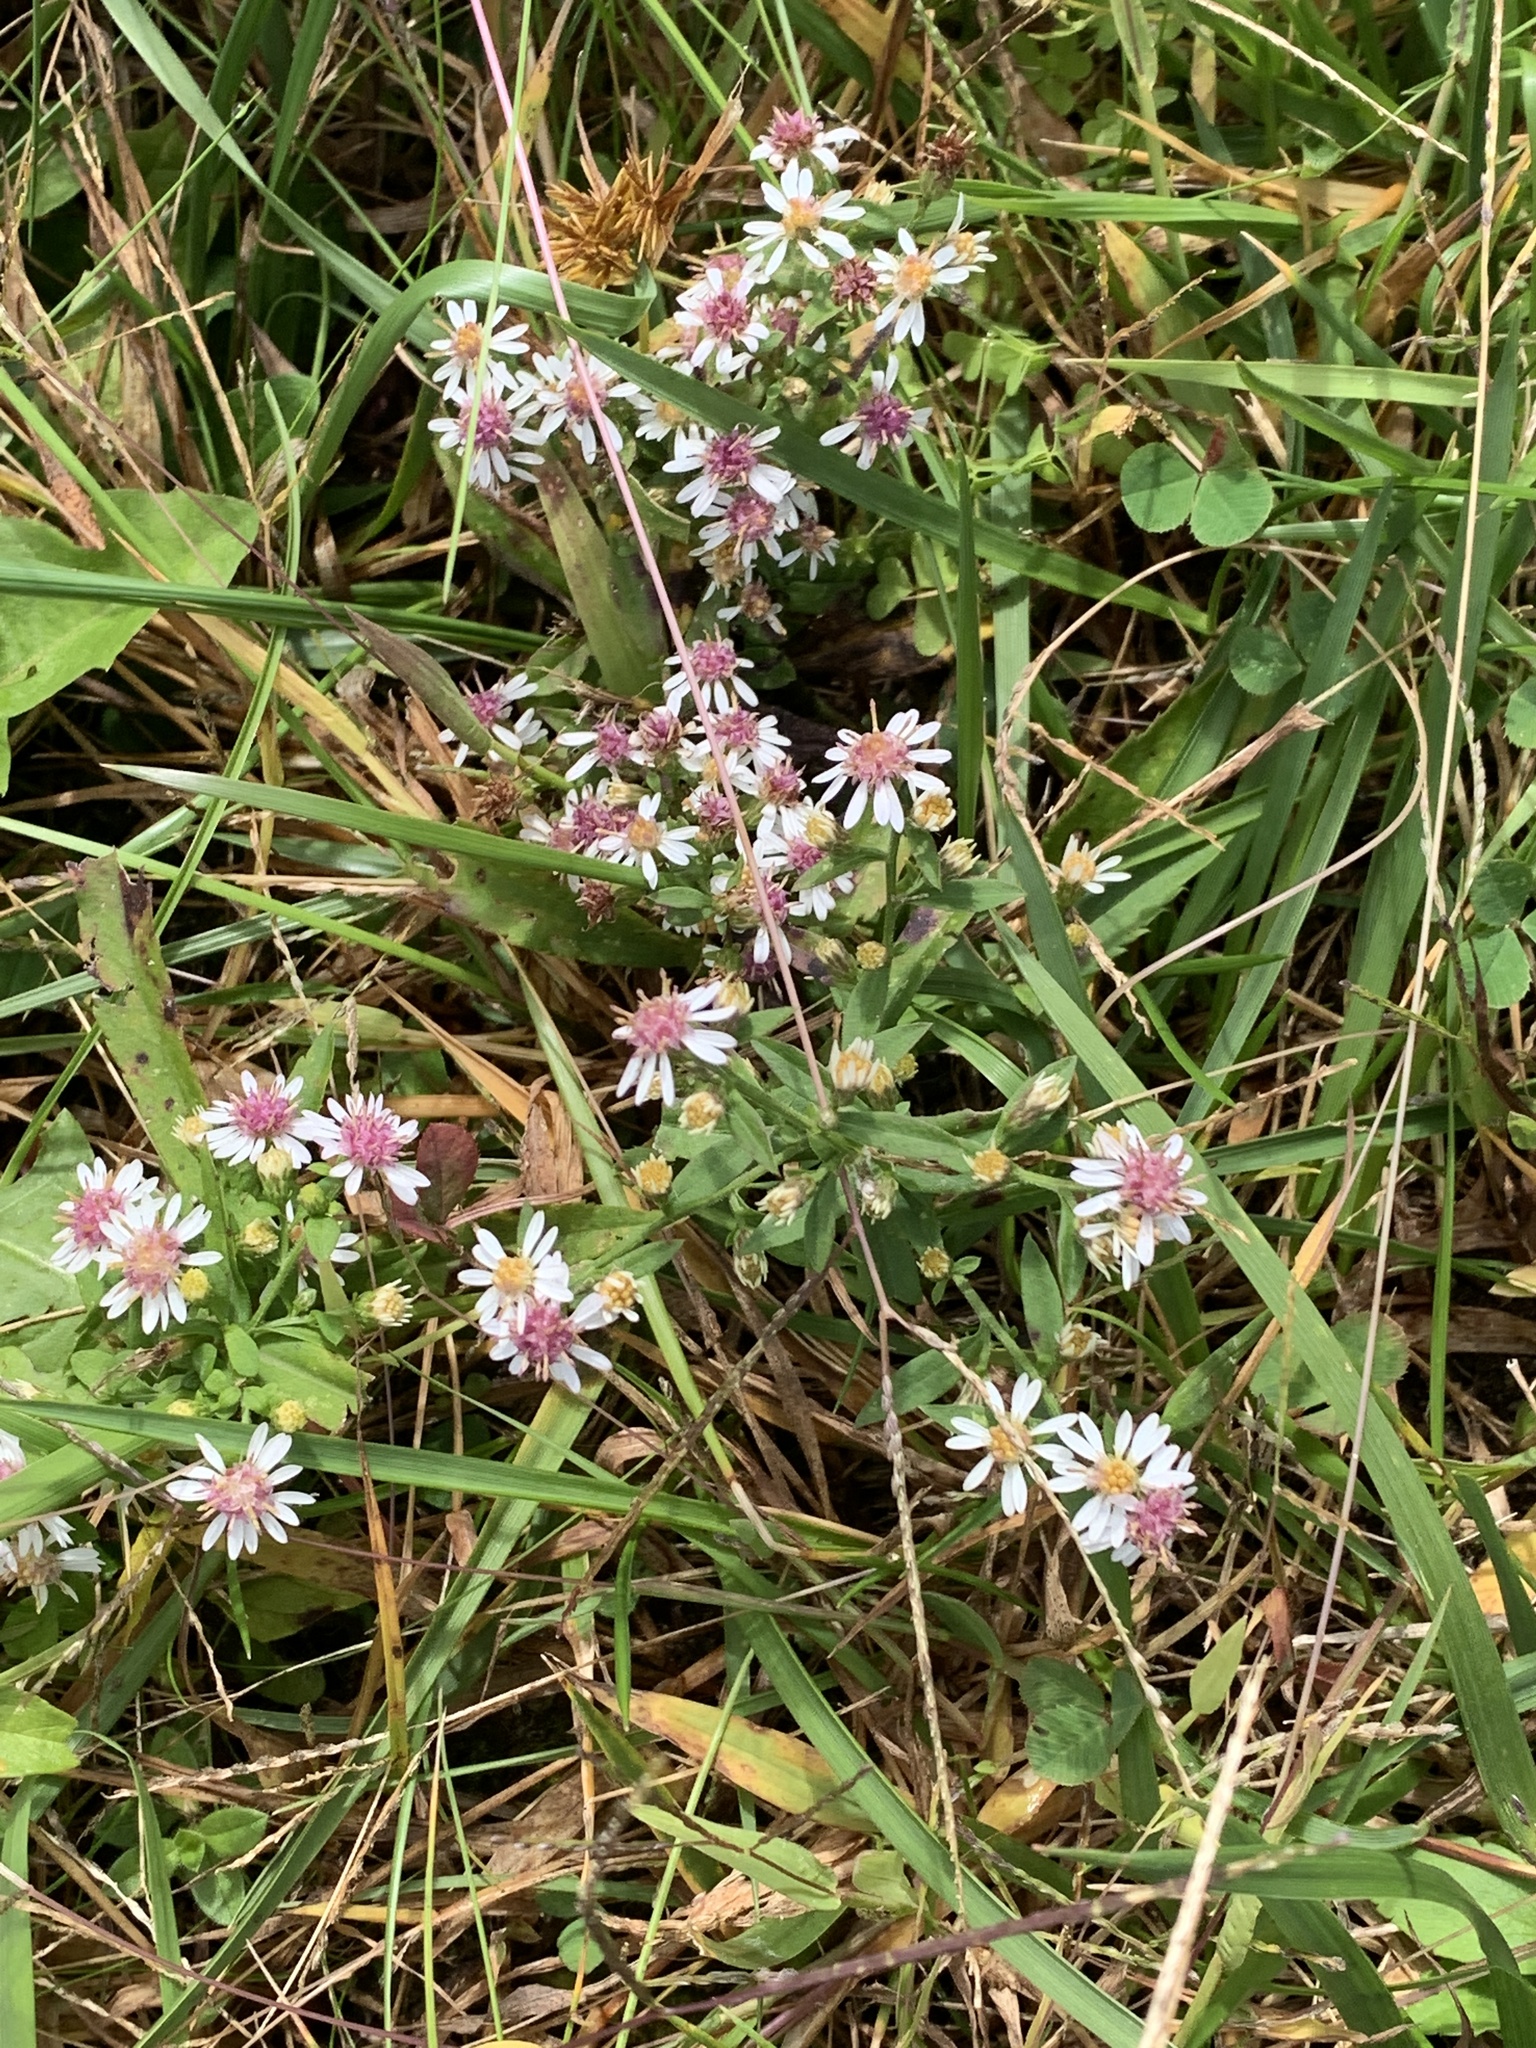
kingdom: Plantae
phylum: Tracheophyta
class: Magnoliopsida
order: Asterales
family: Asteraceae
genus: Symphyotrichum
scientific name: Symphyotrichum lateriflorum
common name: Calico aster
